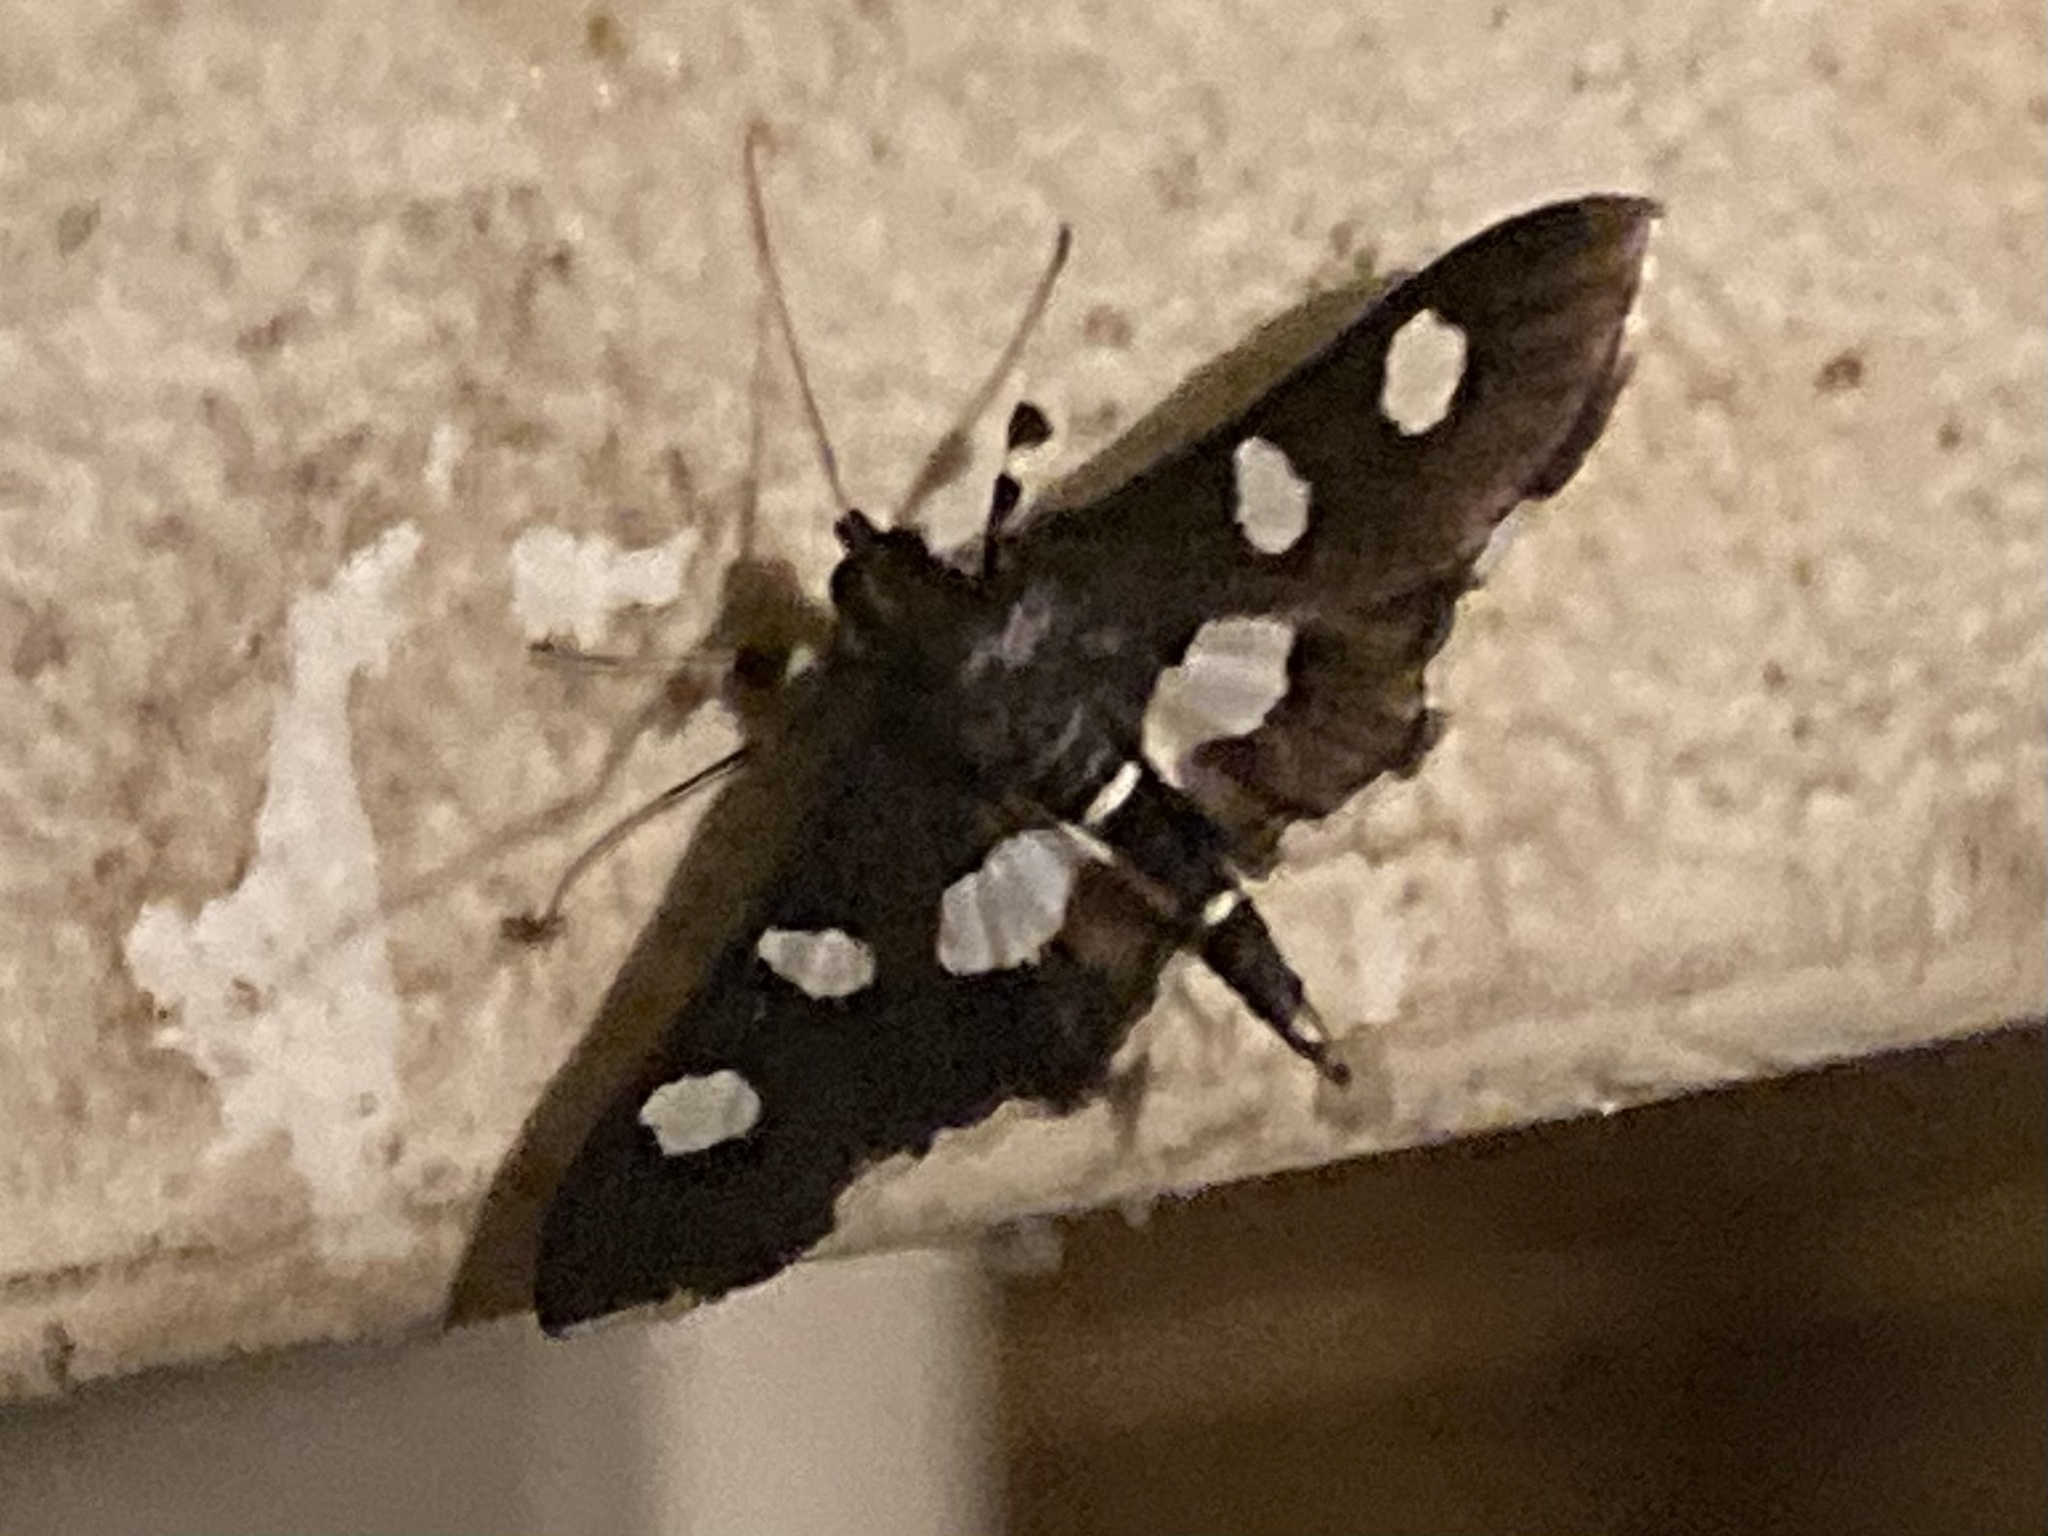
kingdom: Animalia
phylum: Arthropoda
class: Insecta
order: Lepidoptera
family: Crambidae
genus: Desmia
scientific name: Desmia
